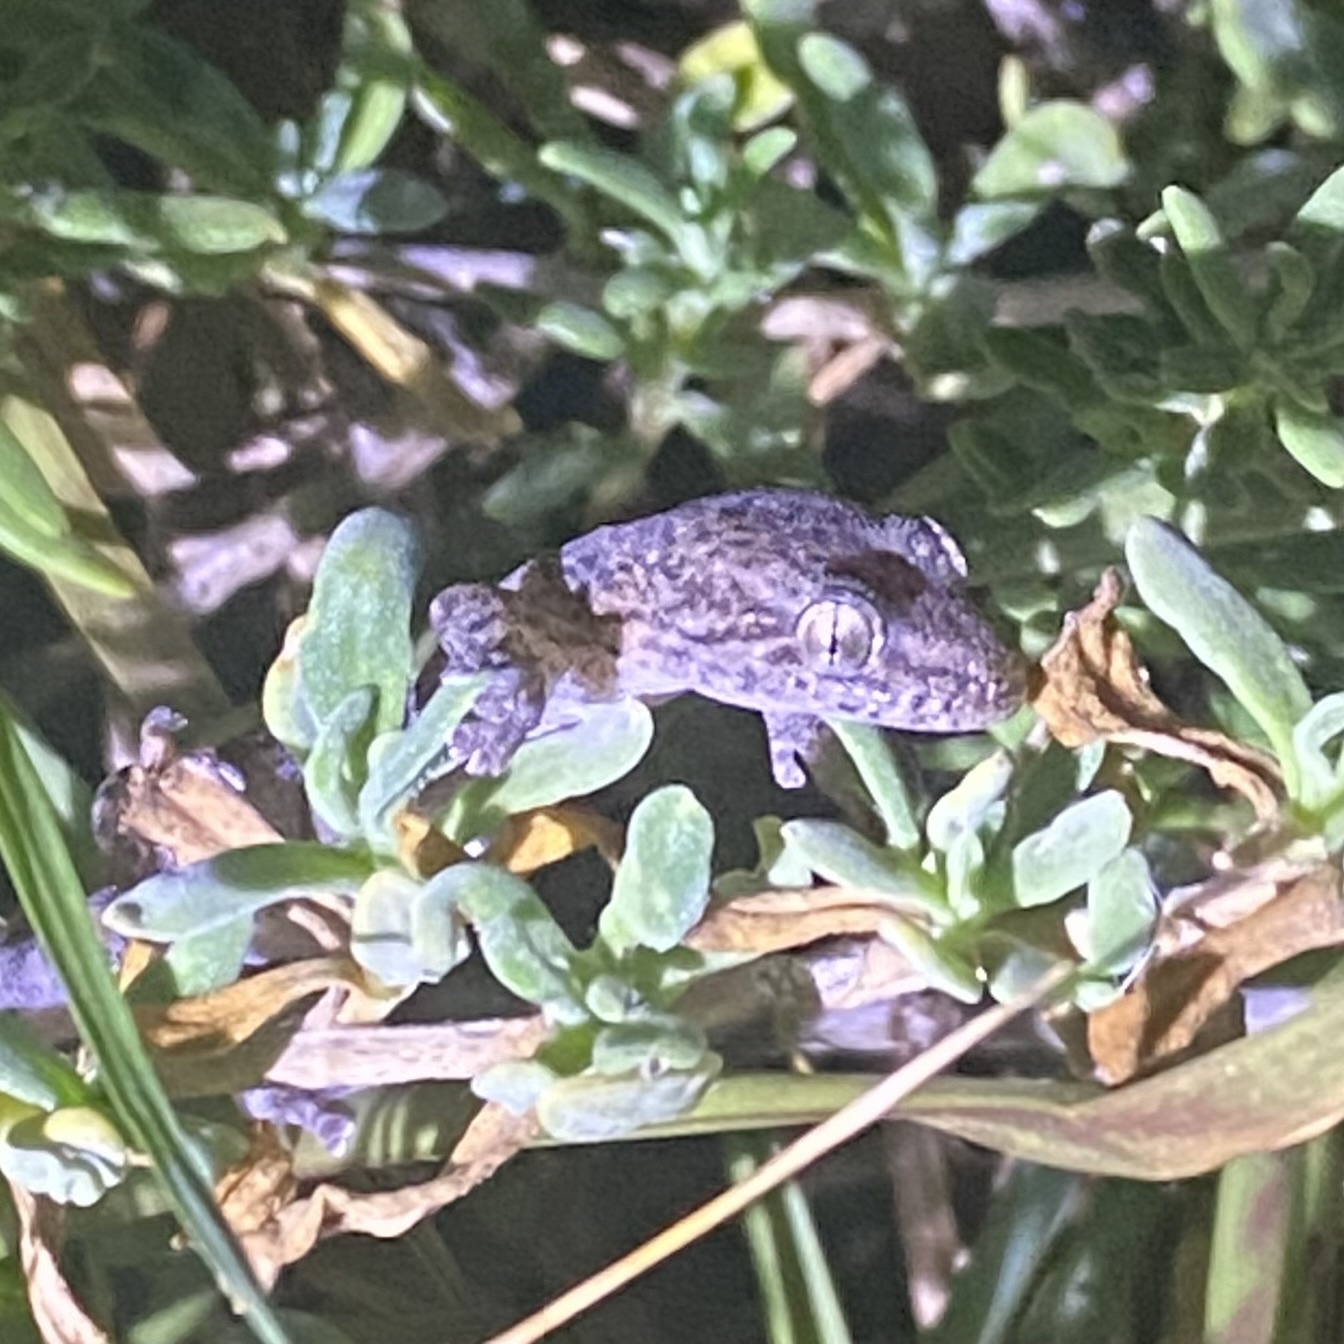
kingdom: Animalia
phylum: Chordata
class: Squamata
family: Gekkonidae
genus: Afrogecko
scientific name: Afrogecko porphyreus
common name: Marbled leaf-toed gecko
